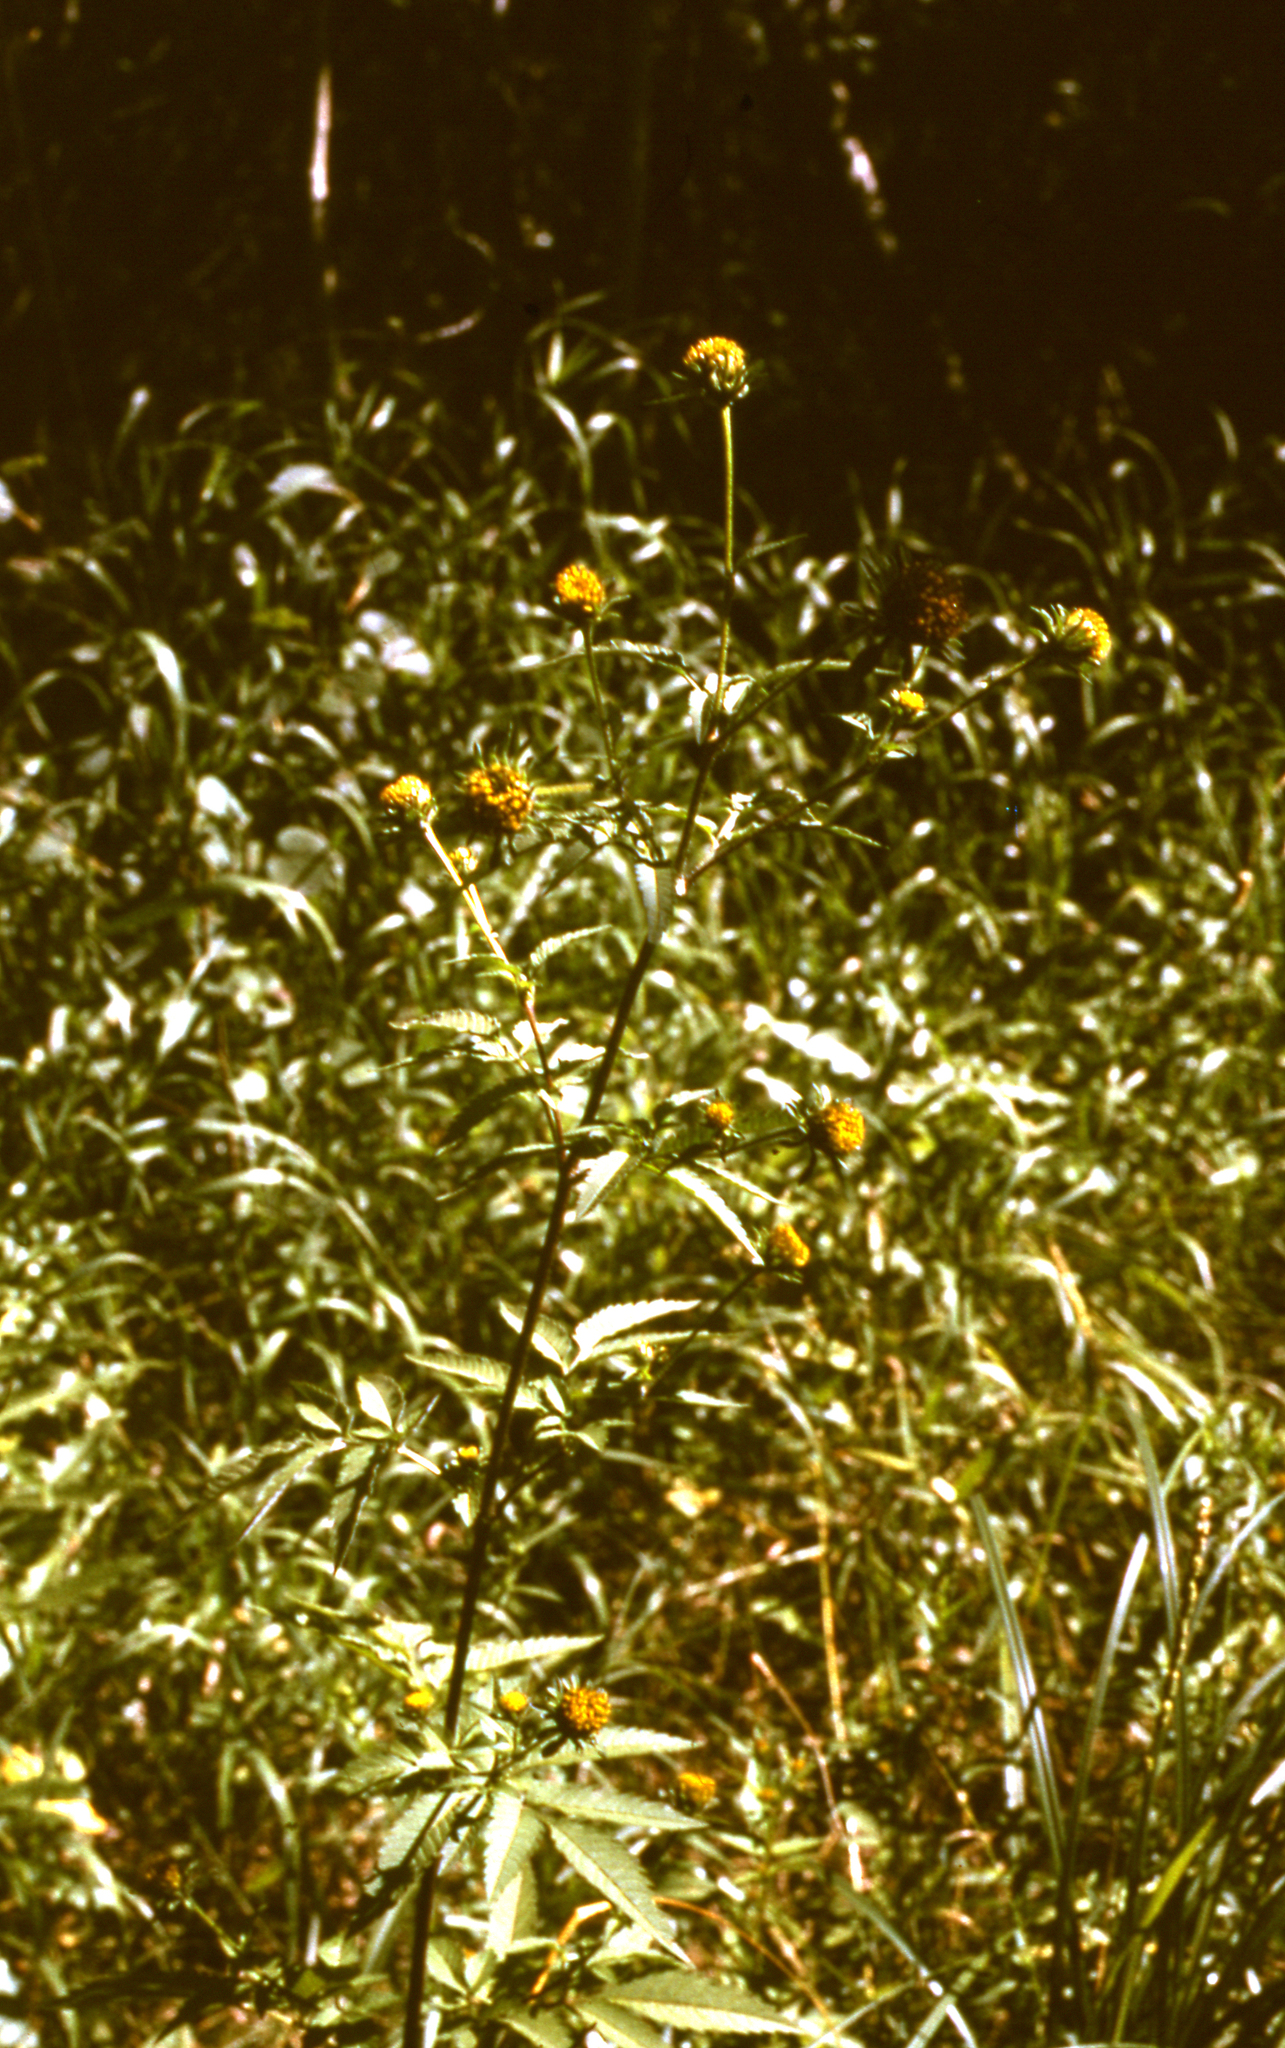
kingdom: Plantae
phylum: Tracheophyta
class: Magnoliopsida
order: Asterales
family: Asteraceae
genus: Bidens
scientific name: Bidens vulgata
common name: Tall beggarticks
